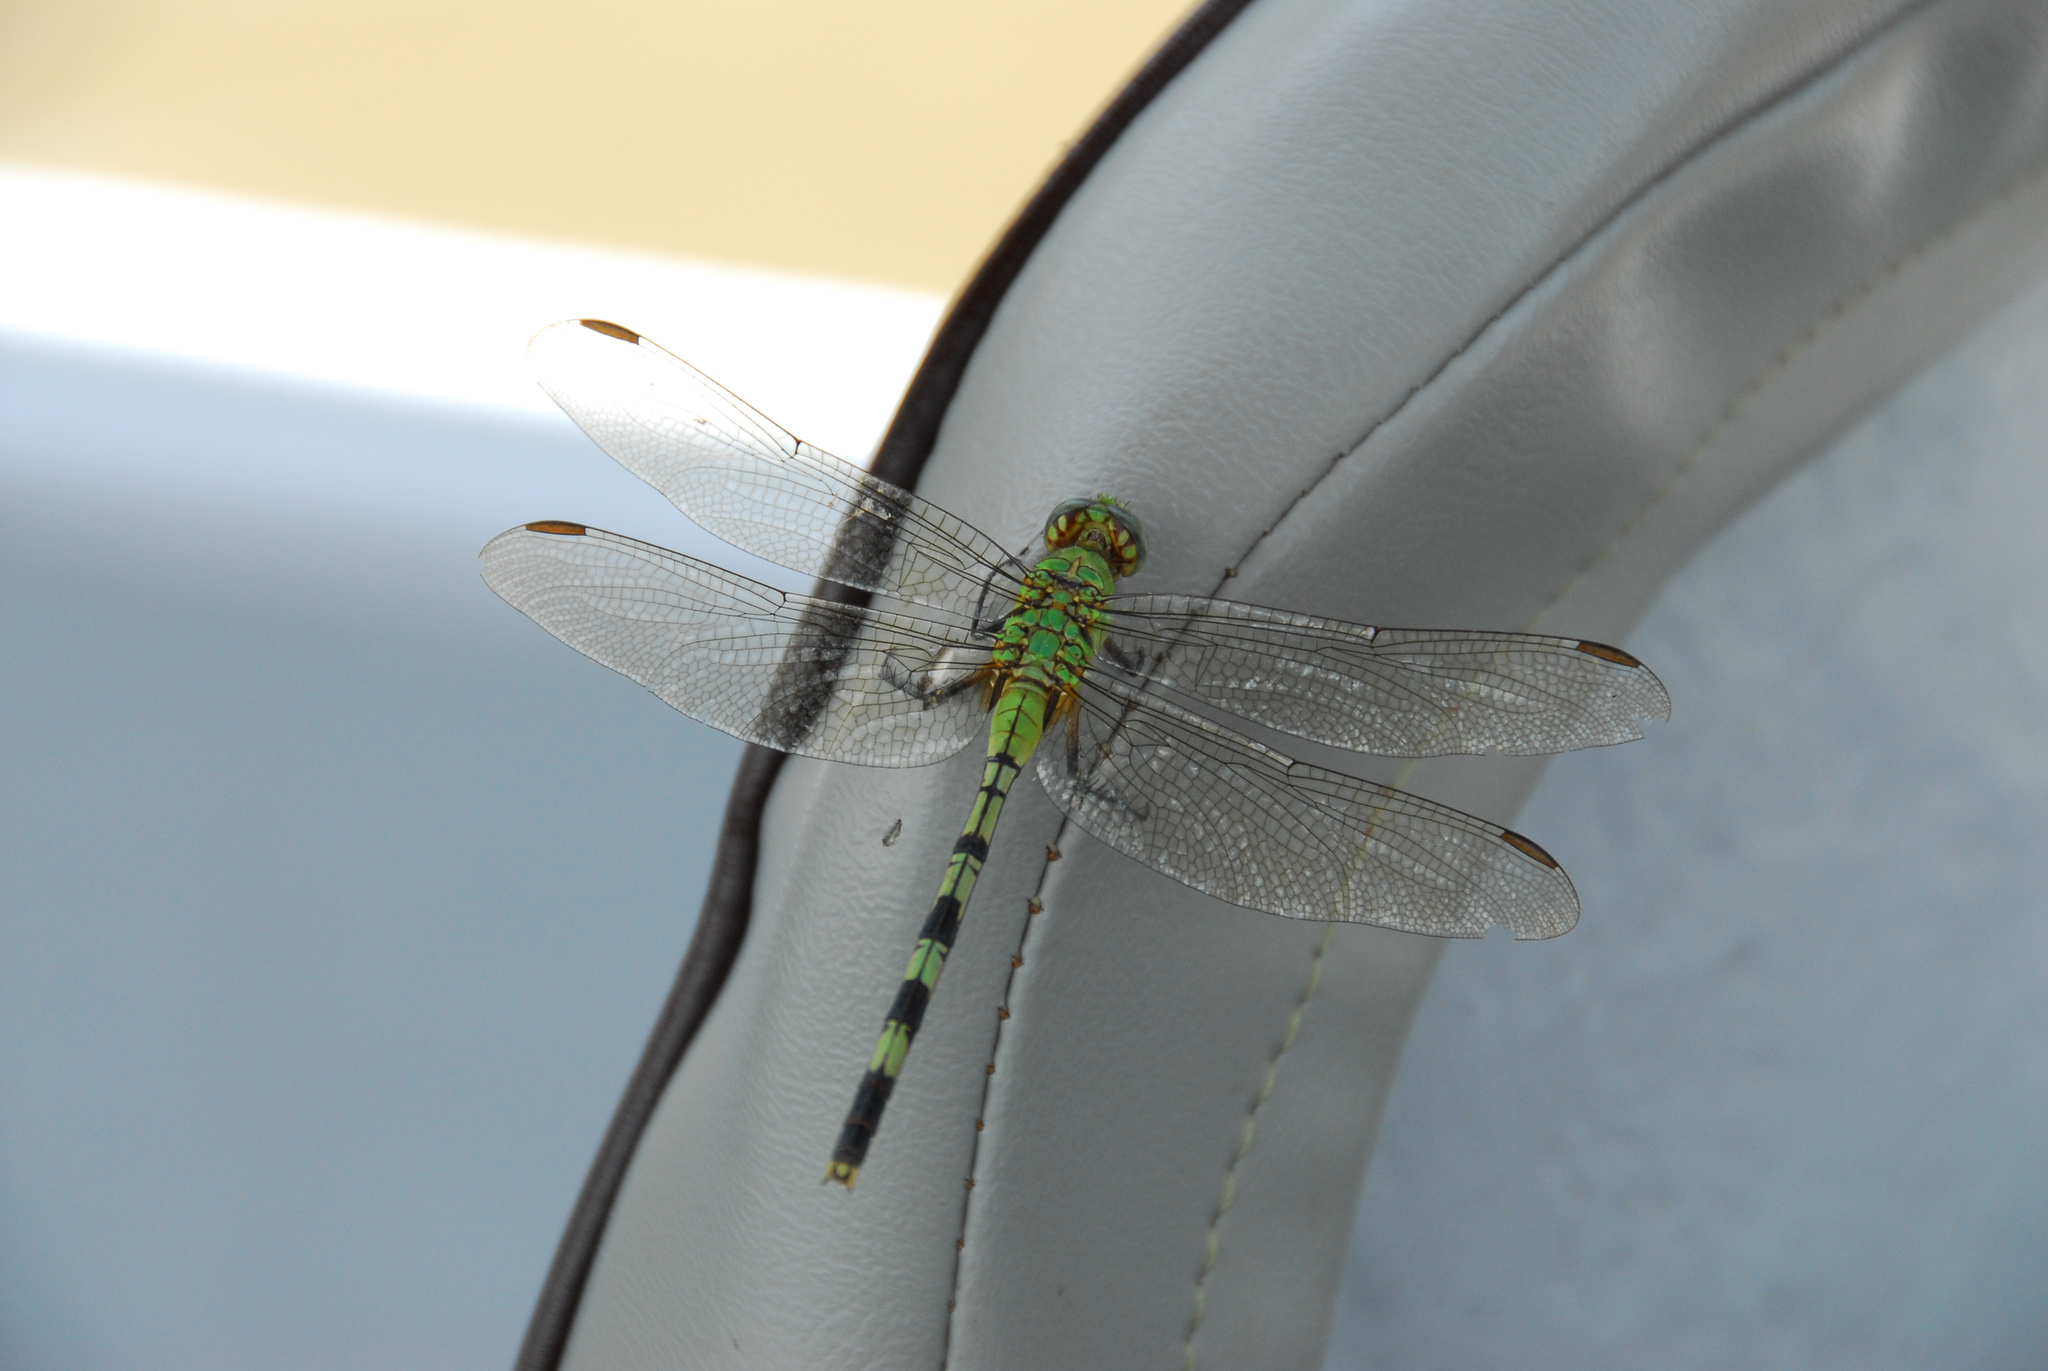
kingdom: Animalia
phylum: Arthropoda
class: Insecta
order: Odonata
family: Libellulidae
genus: Erythemis
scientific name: Erythemis vesiculosa
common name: Great pondhawk
